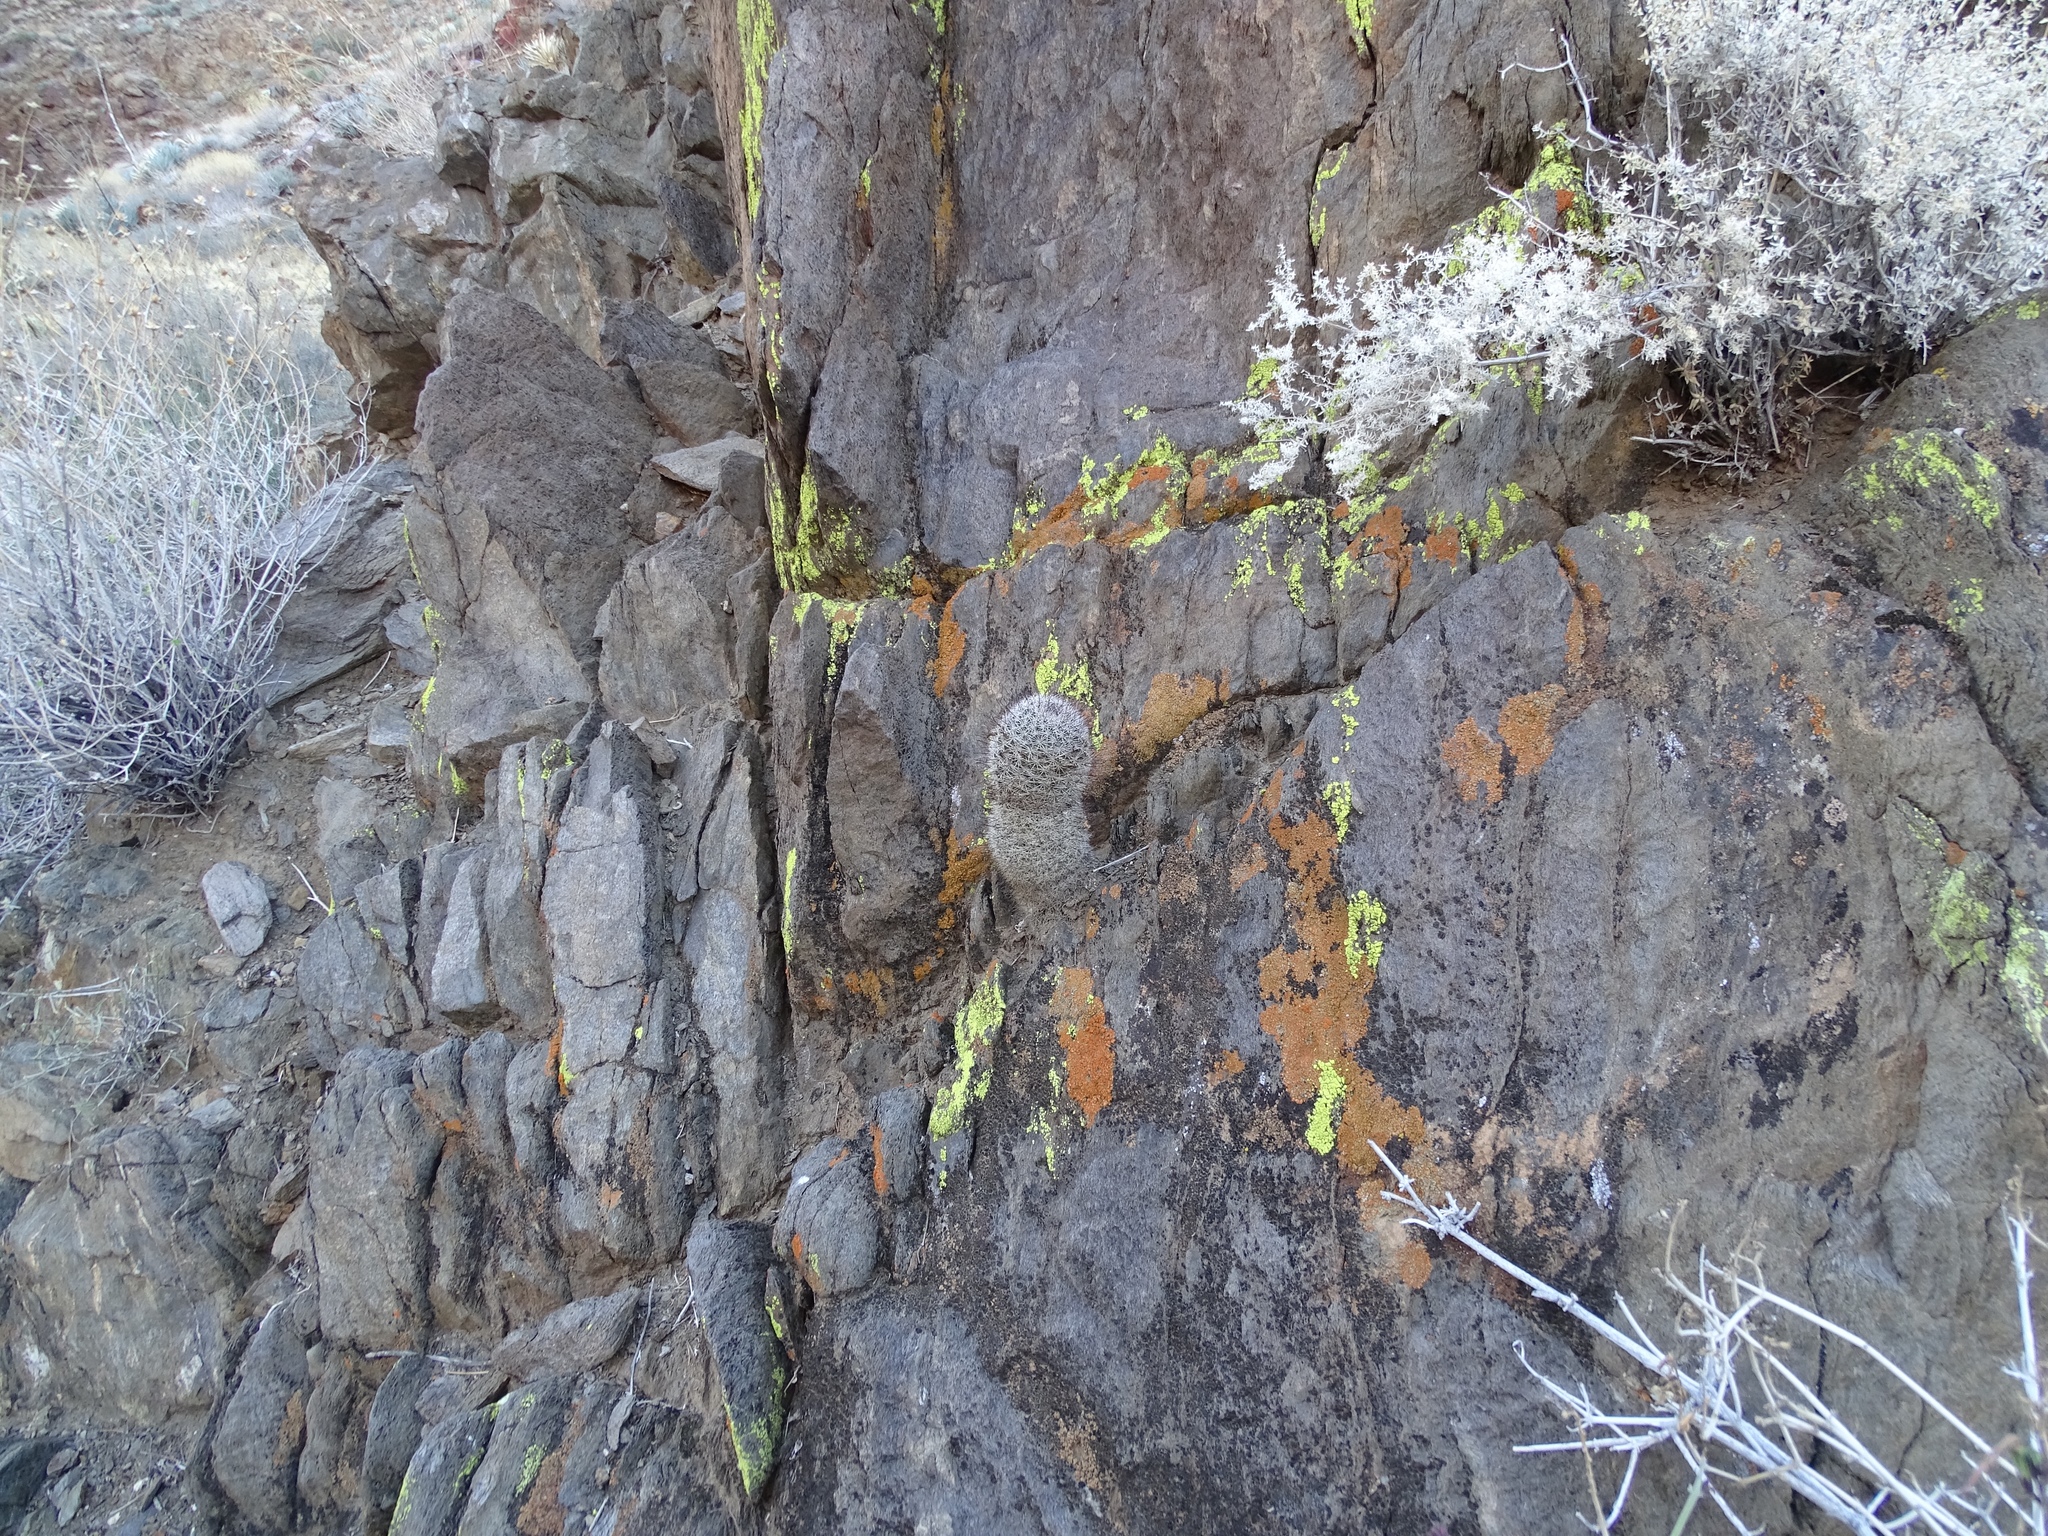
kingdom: Plantae
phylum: Tracheophyta
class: Magnoliopsida
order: Caryophyllales
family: Cactaceae
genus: Cochemiea
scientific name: Cochemiea dioica
